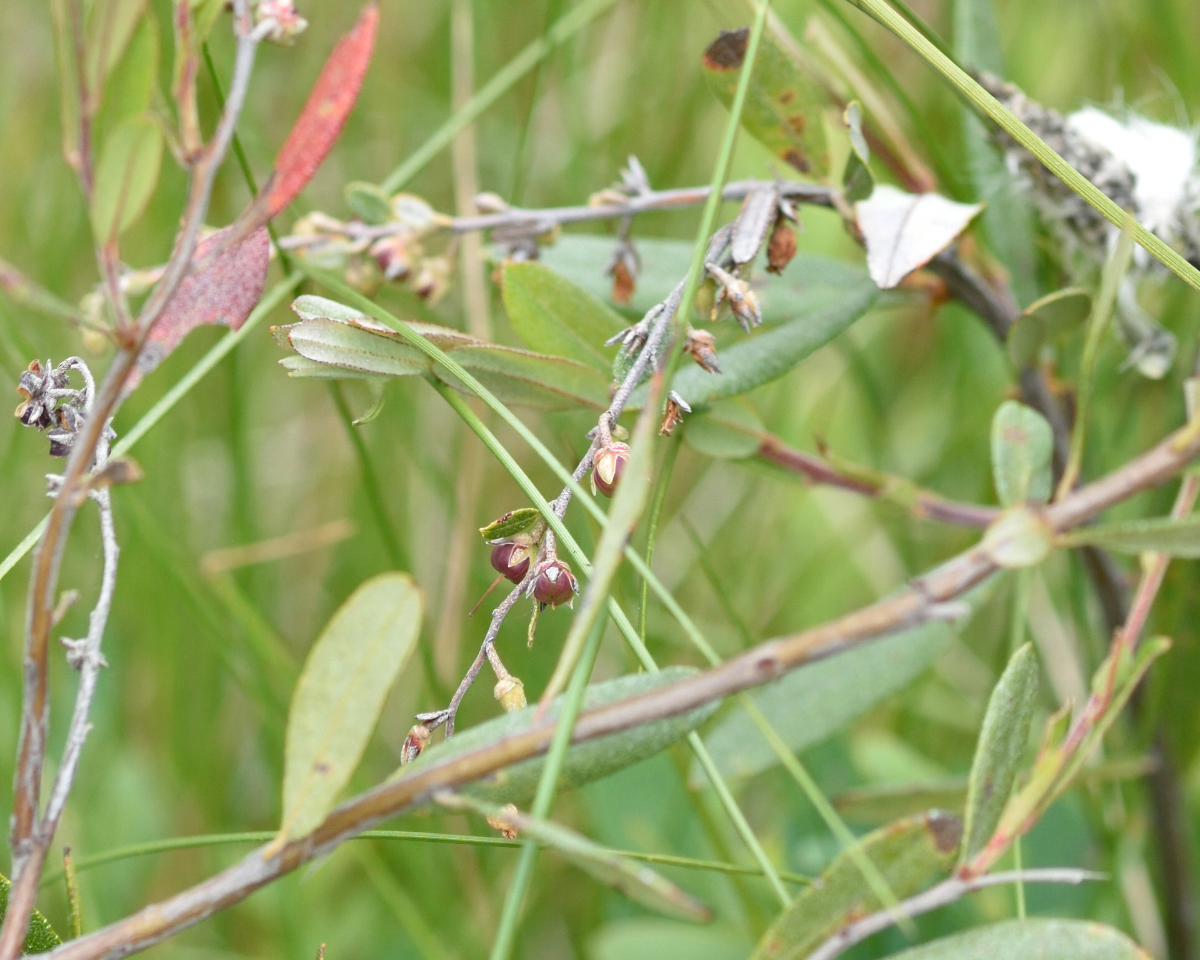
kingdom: Plantae
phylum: Tracheophyta
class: Magnoliopsida
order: Ericales
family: Ericaceae
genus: Chamaedaphne
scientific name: Chamaedaphne calyculata
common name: Leatherleaf
